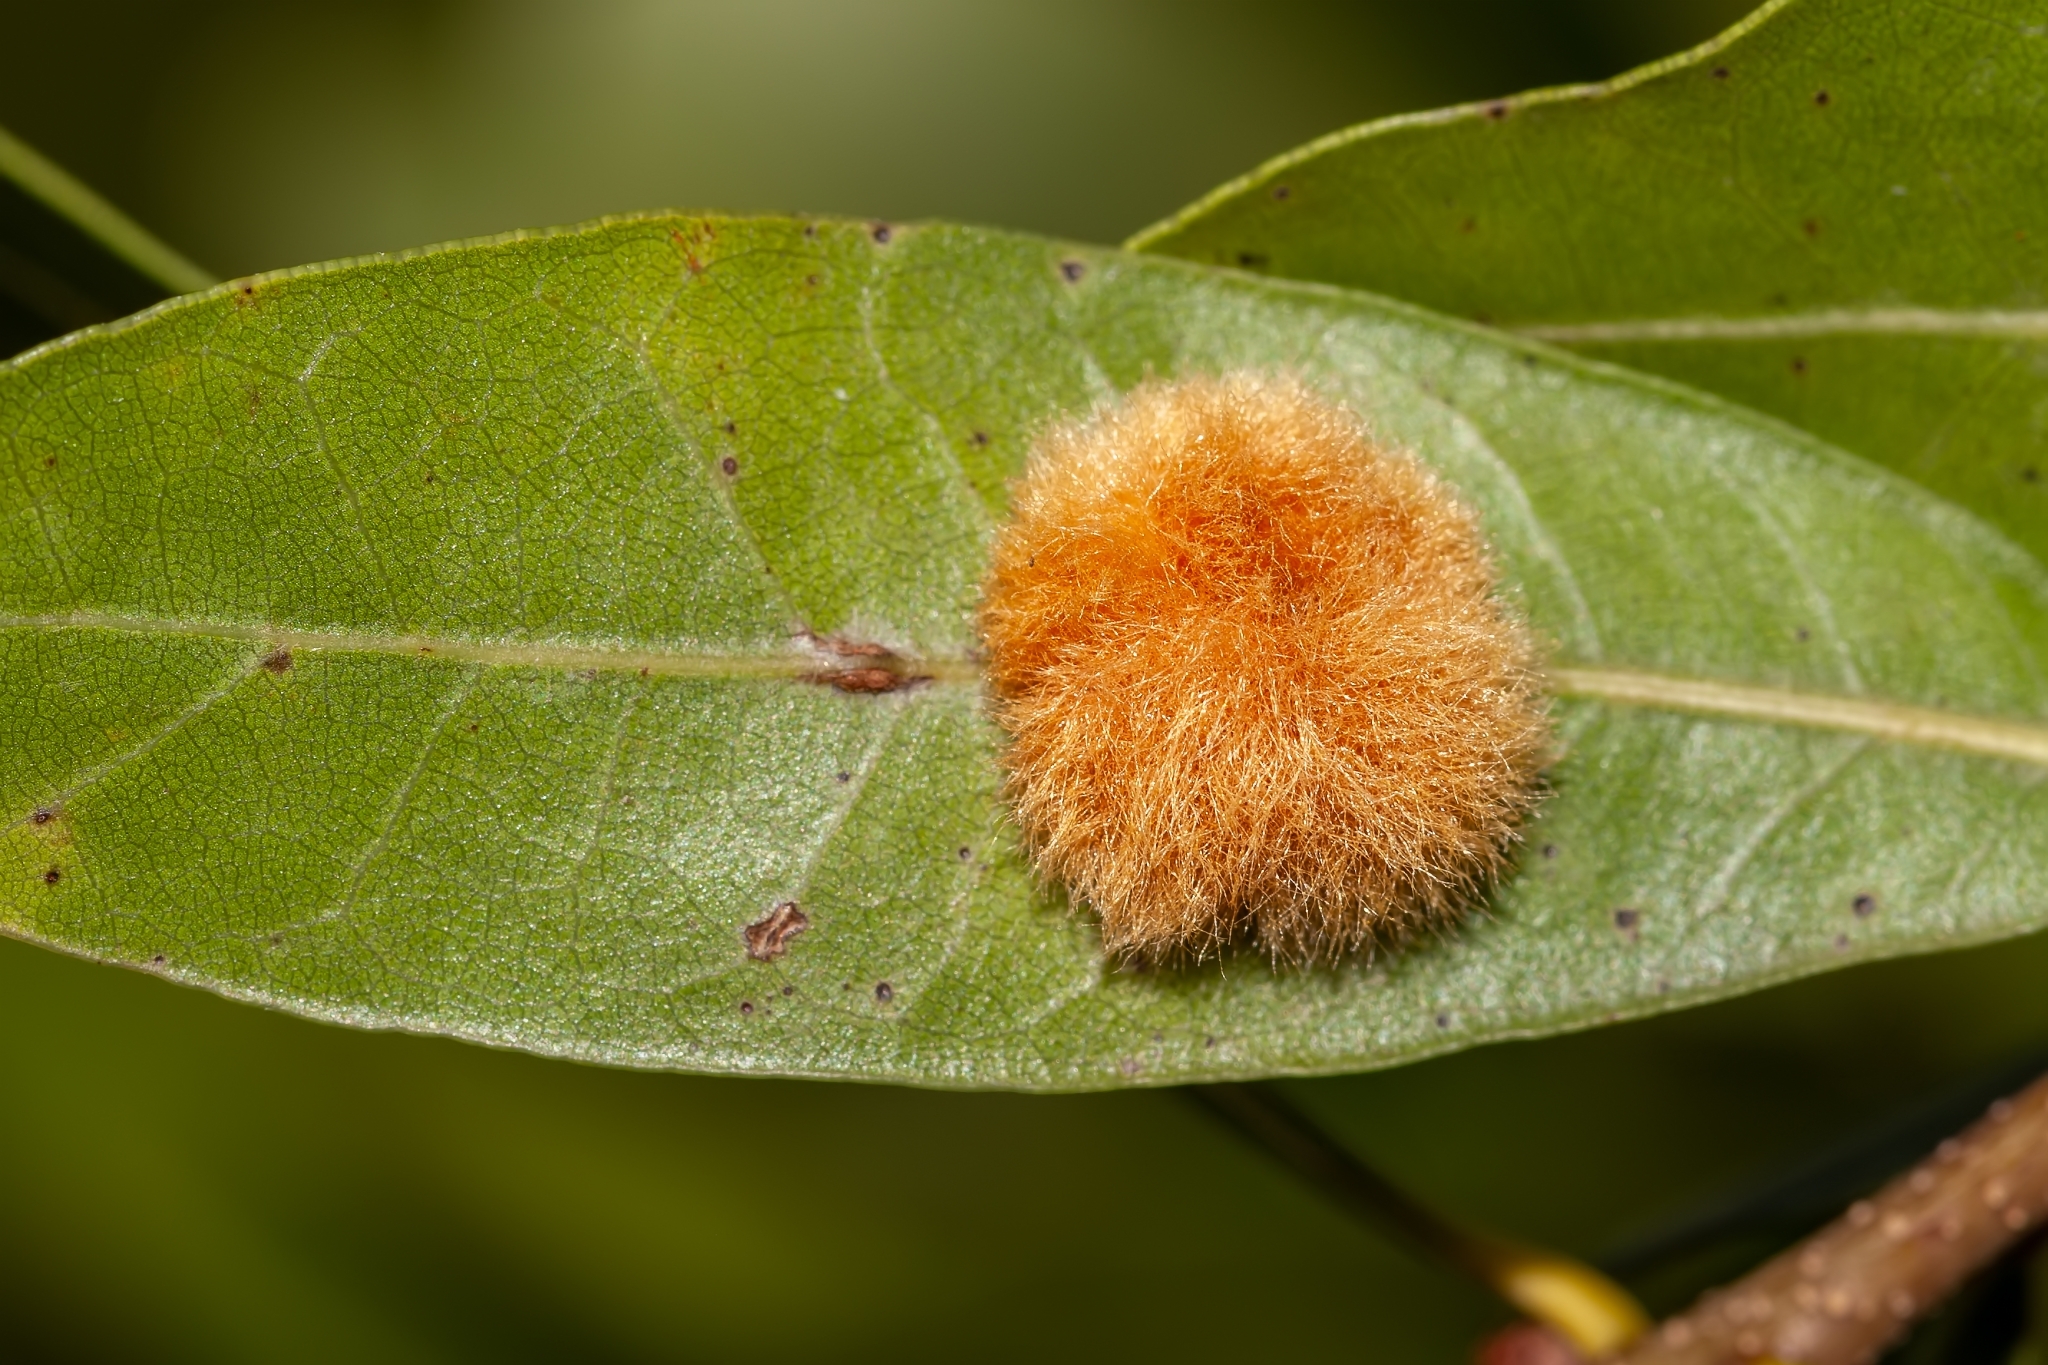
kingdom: Animalia
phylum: Arthropoda
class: Insecta
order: Hymenoptera
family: Cynipidae
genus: Andricus
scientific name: Andricus Druon quercuslanigerum
